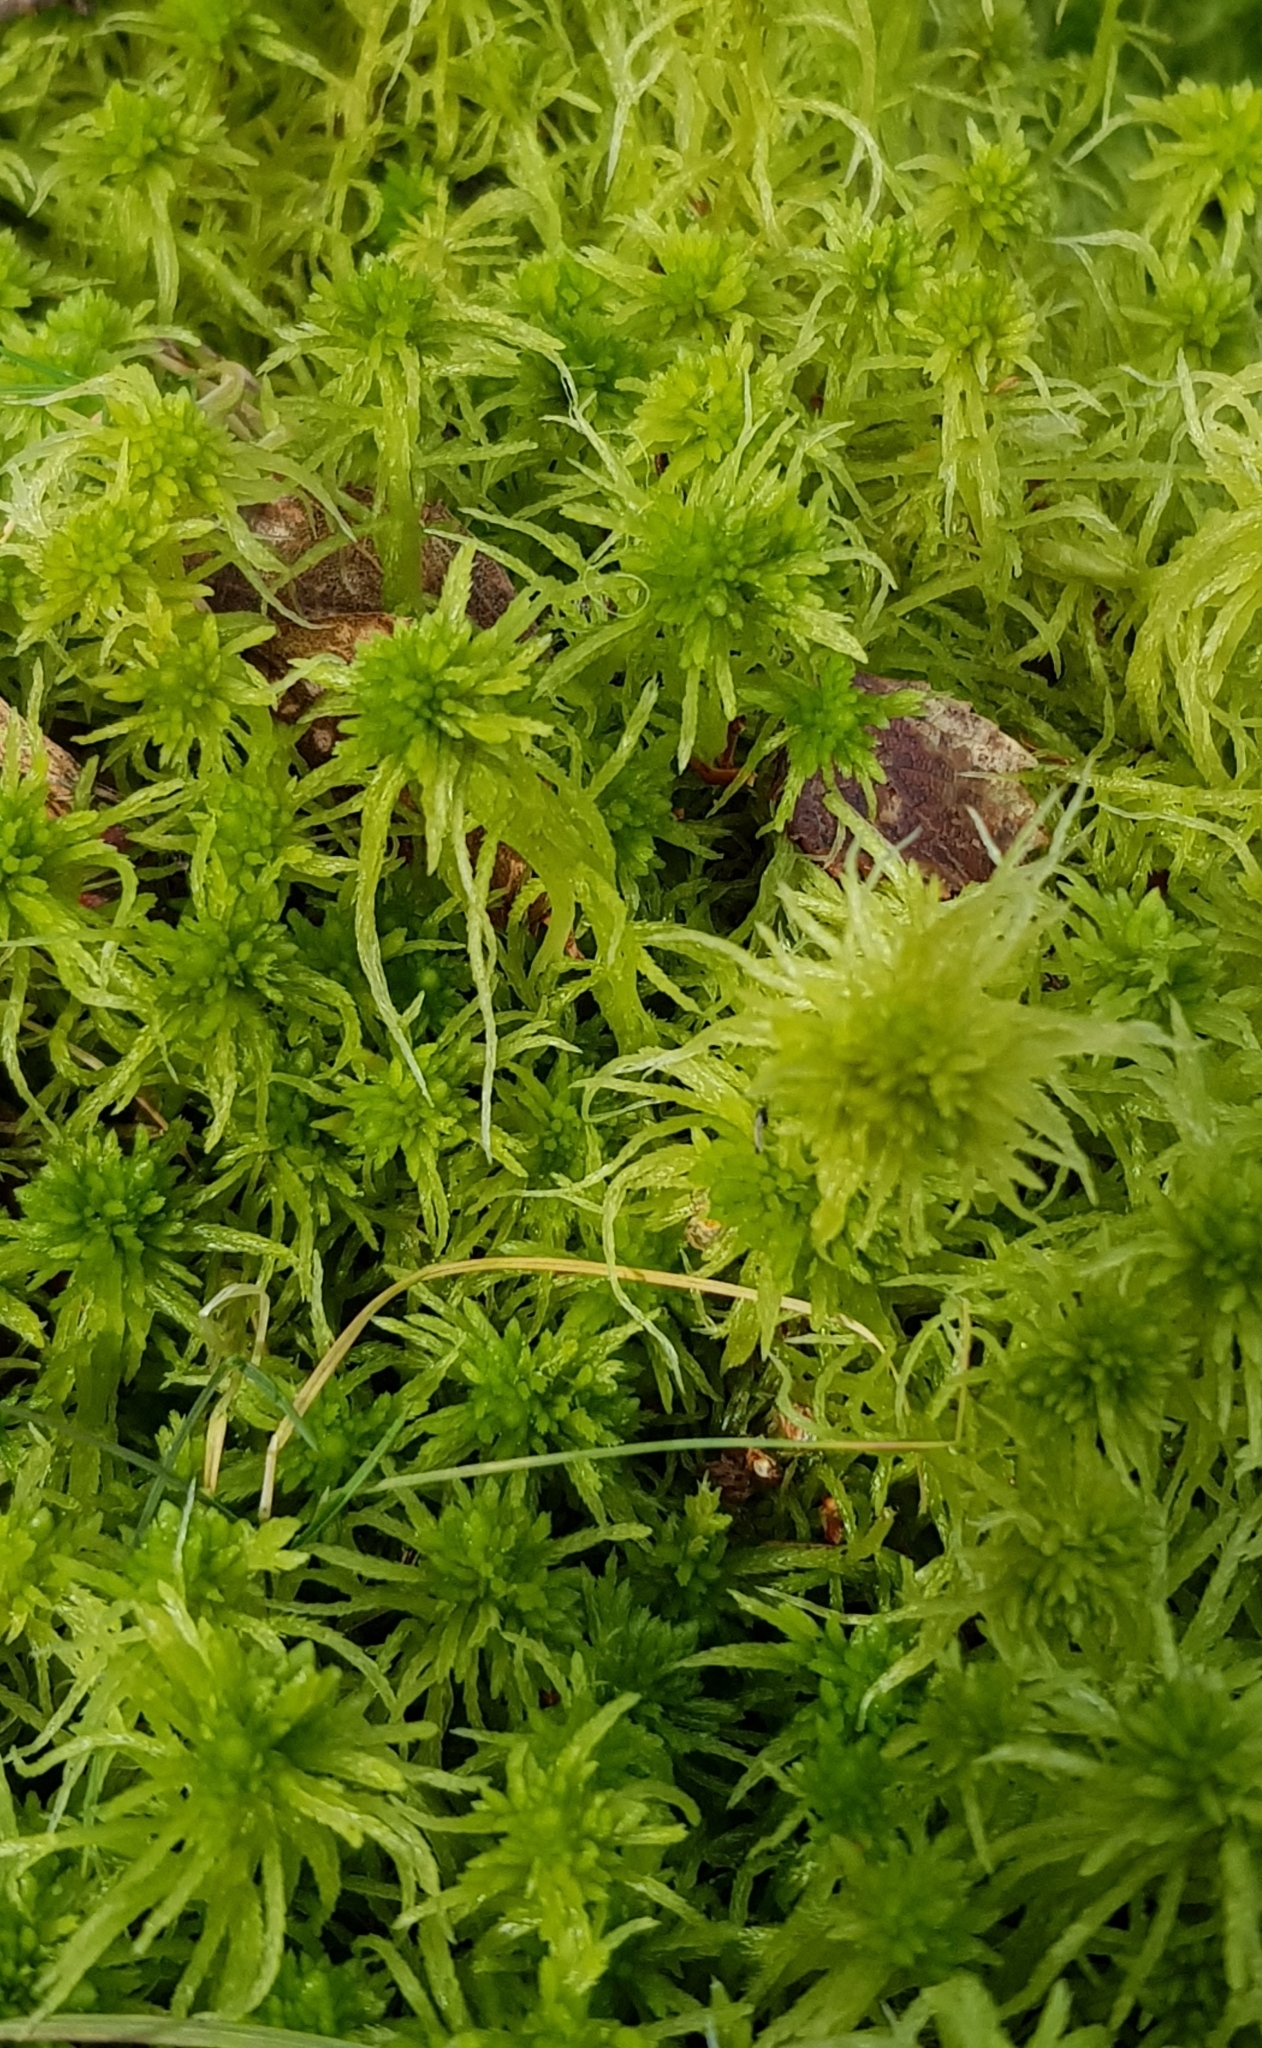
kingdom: Plantae
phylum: Bryophyta
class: Sphagnopsida
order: Sphagnales
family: Sphagnaceae
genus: Sphagnum
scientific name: Sphagnum fimbriatum
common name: Fringed peat moss
